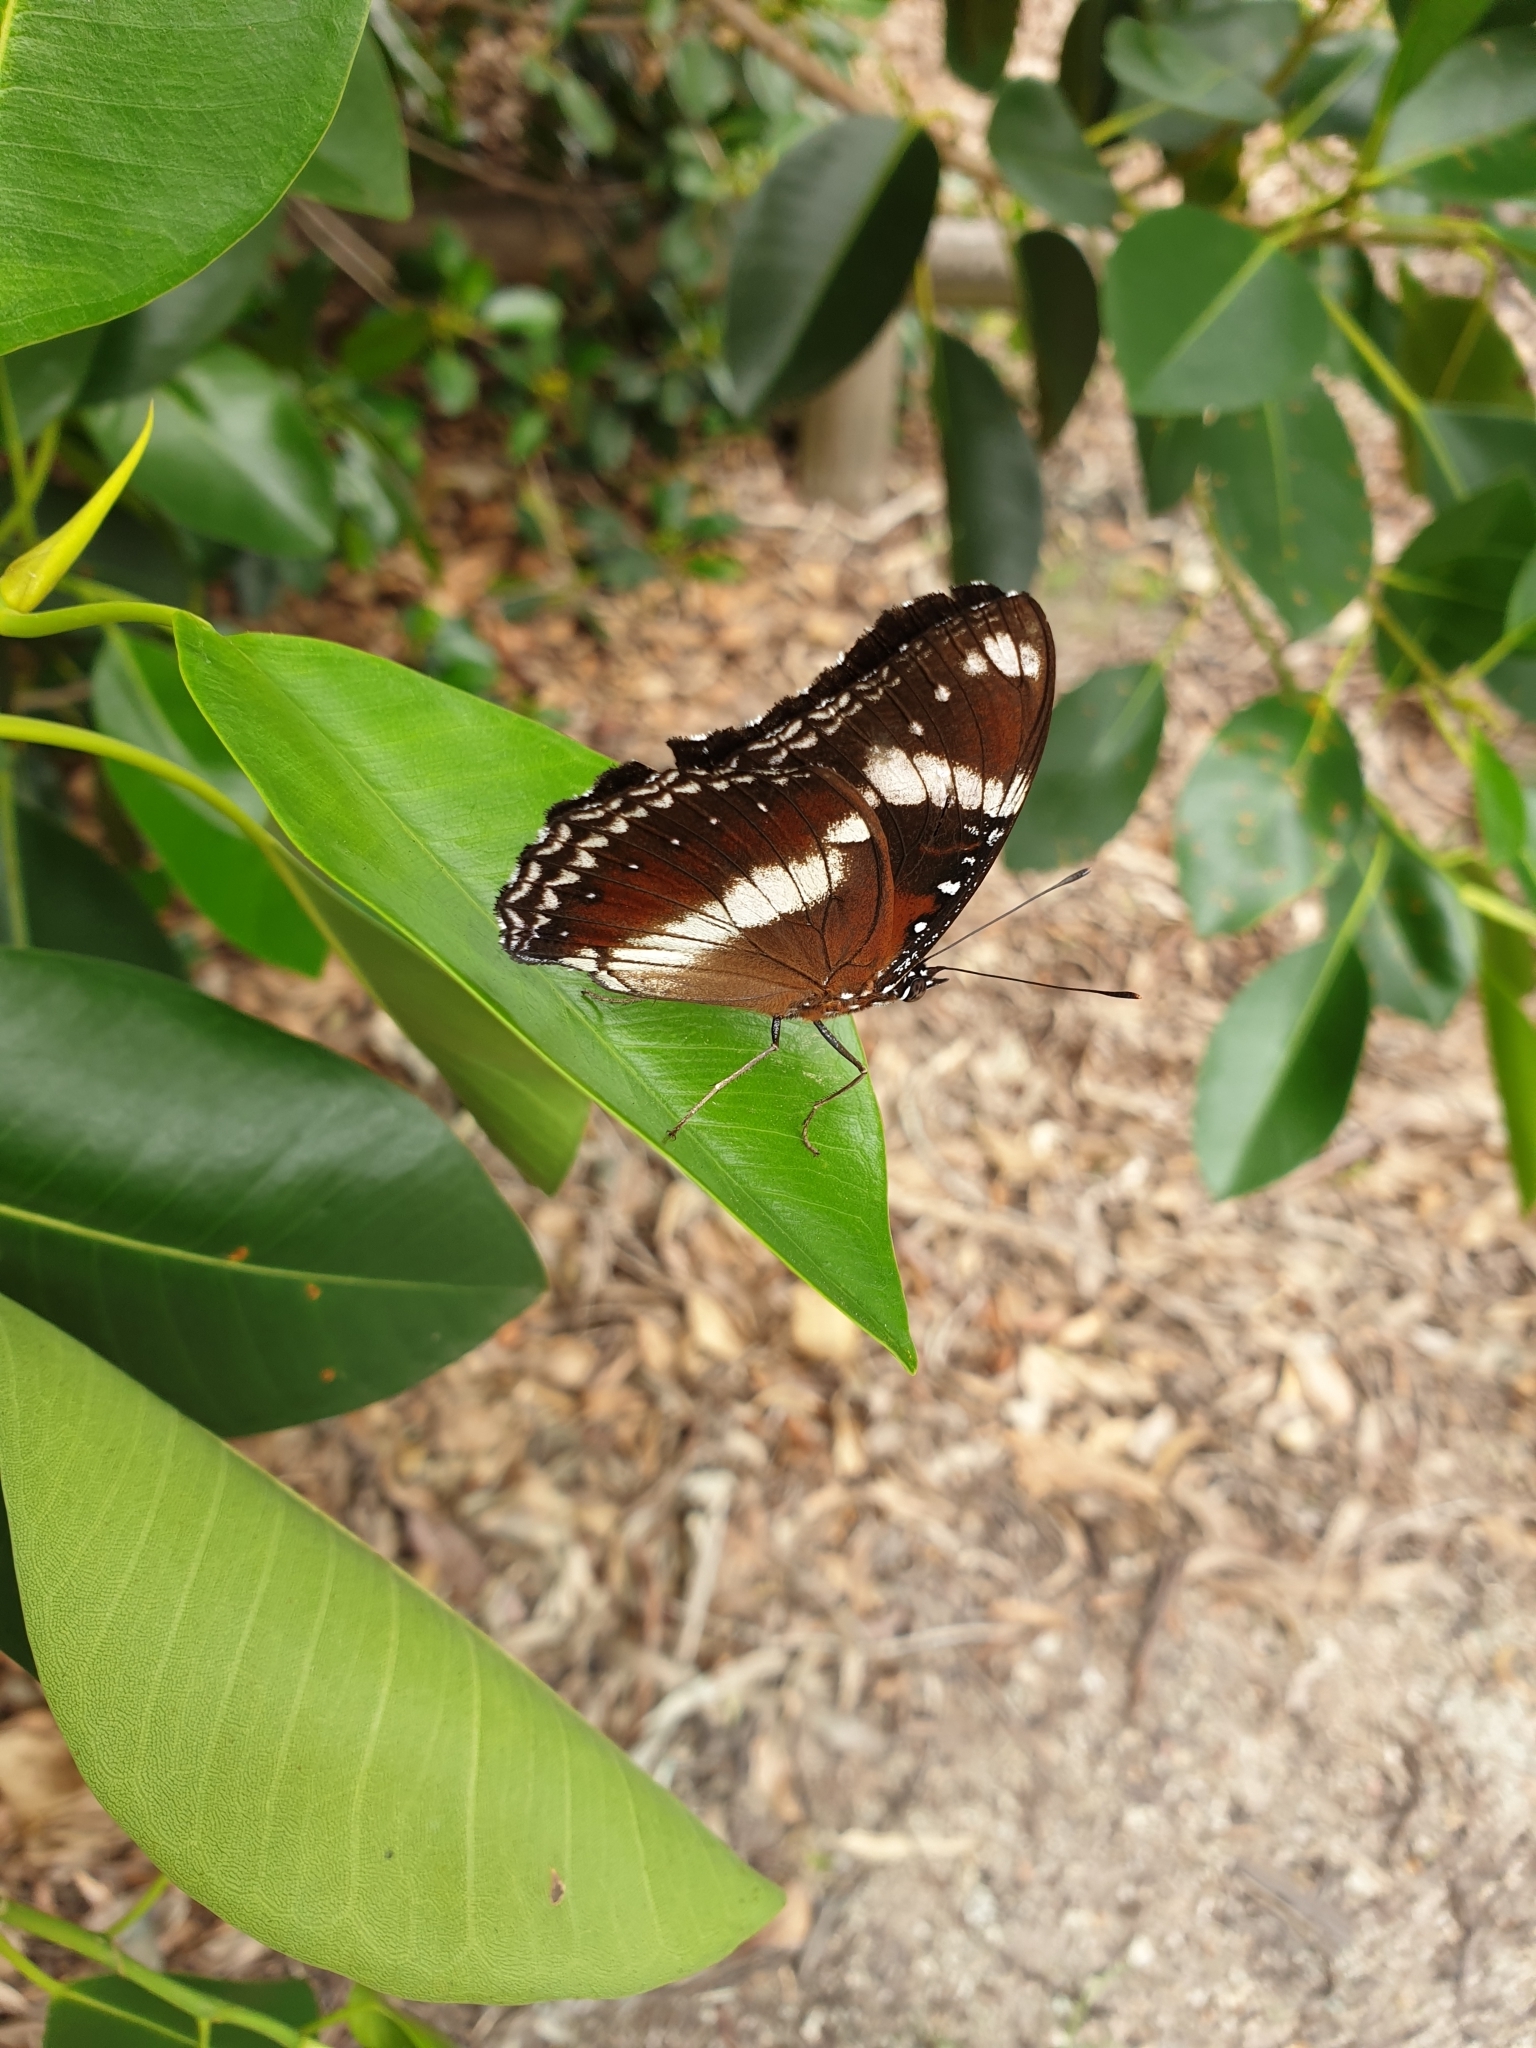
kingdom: Animalia
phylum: Arthropoda
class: Insecta
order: Lepidoptera
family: Nymphalidae
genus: Hypolimnas
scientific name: Hypolimnas bolina
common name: Great eggfly
